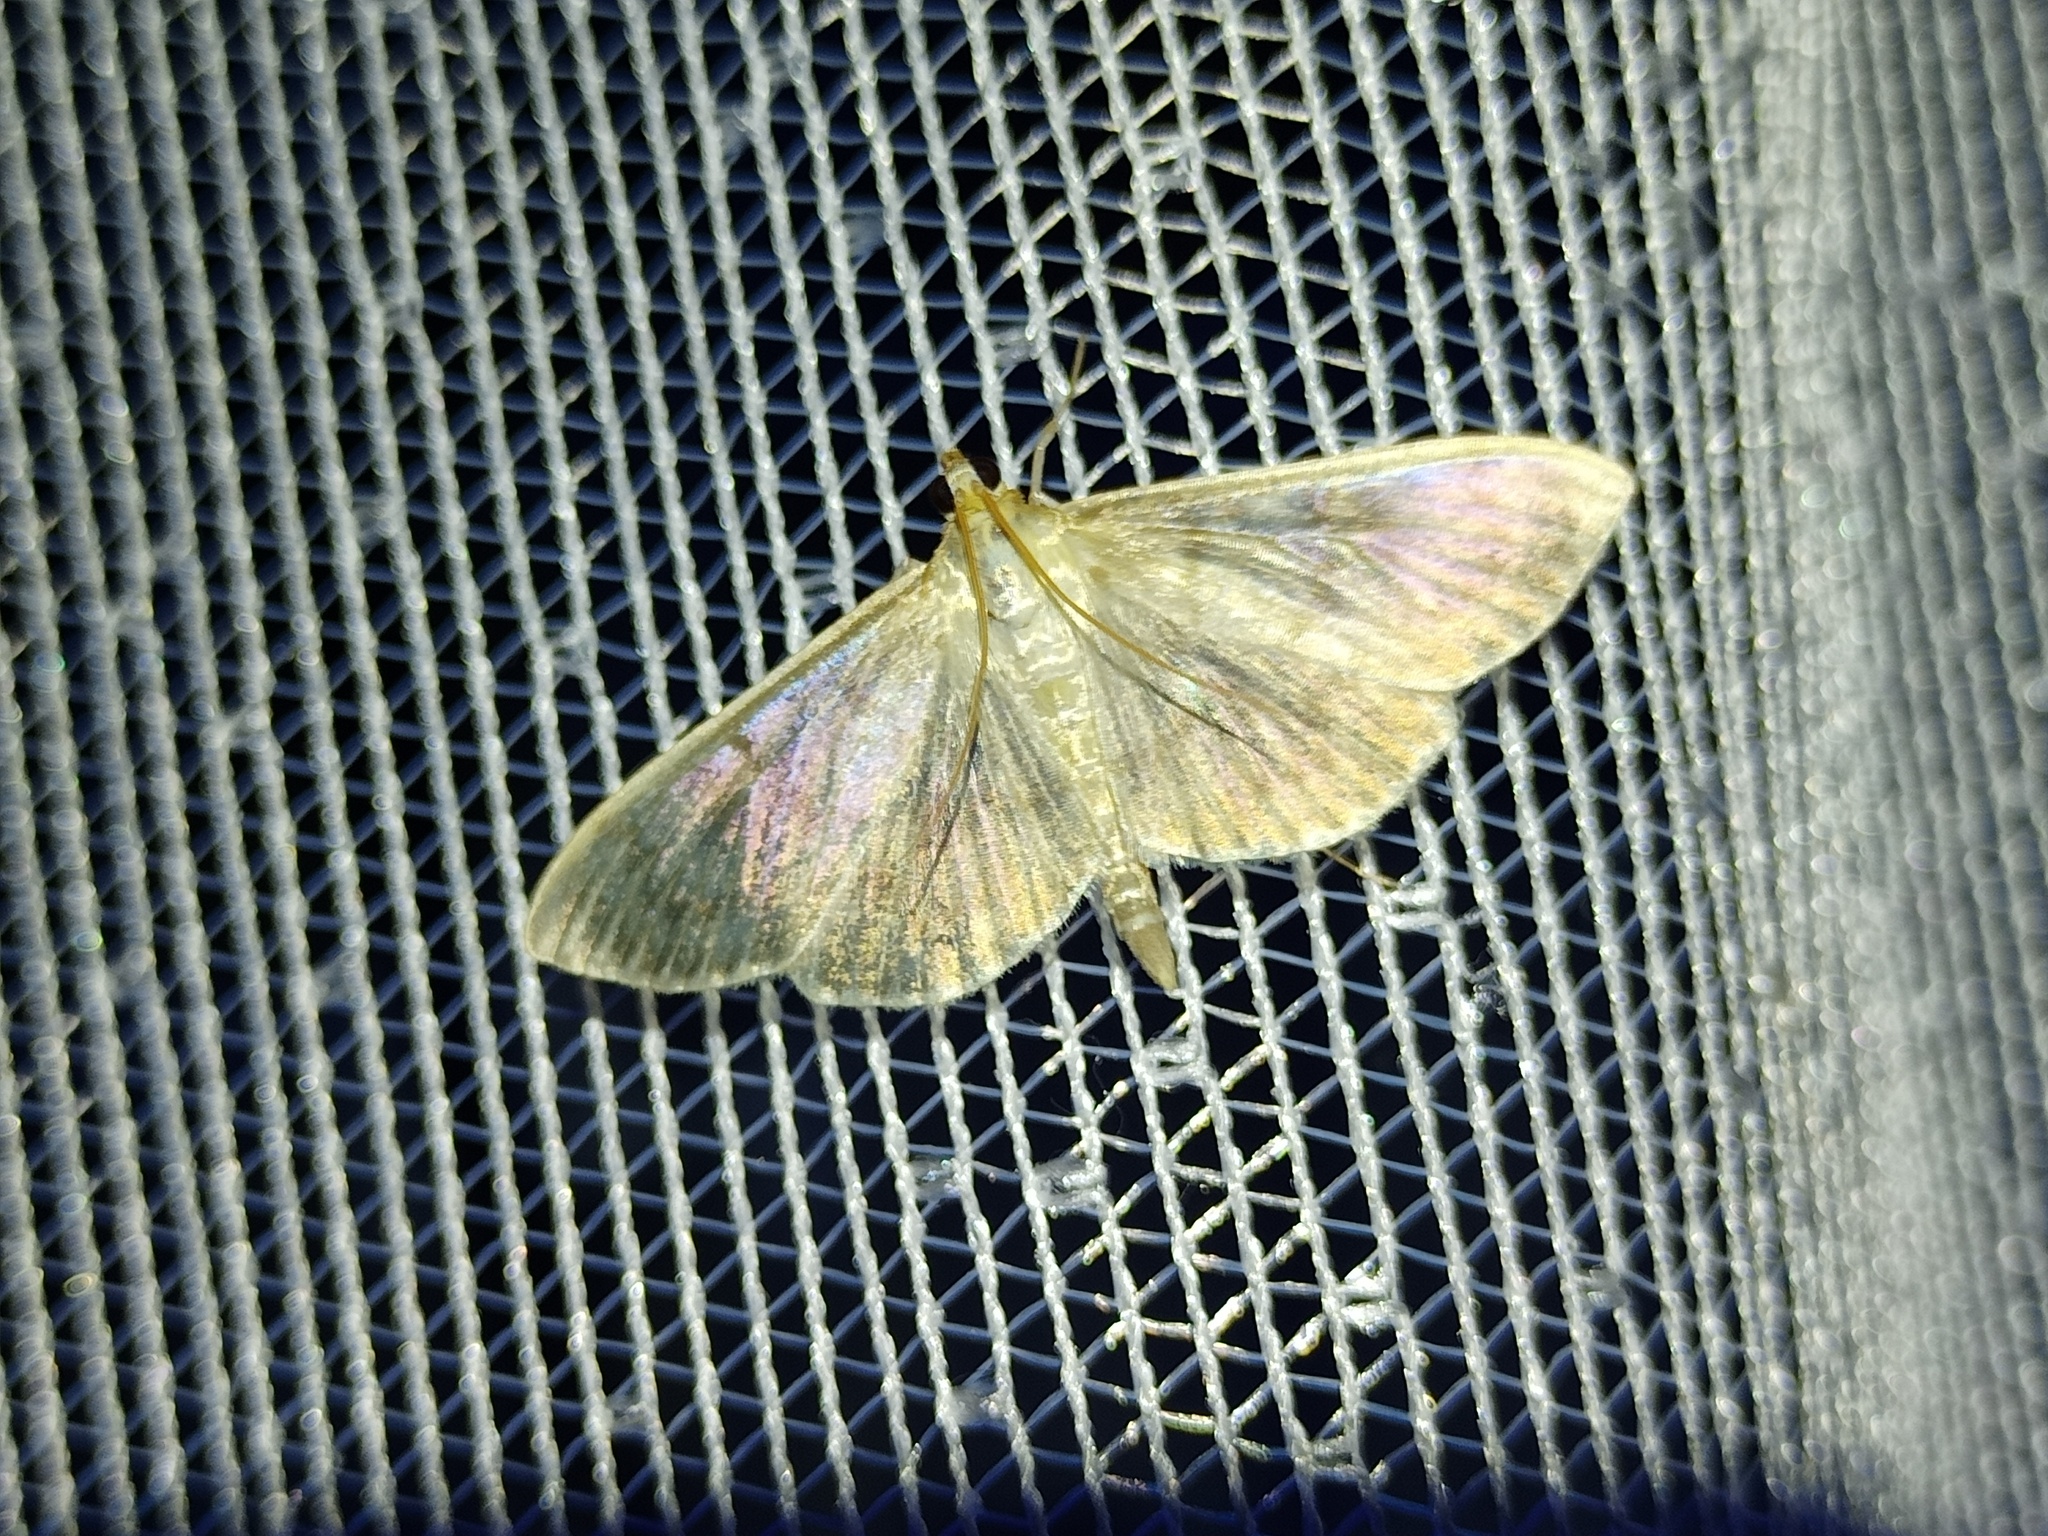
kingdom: Animalia
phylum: Arthropoda
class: Insecta
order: Lepidoptera
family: Crambidae
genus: Patania
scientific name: Patania ruralis
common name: Mother of pearl
